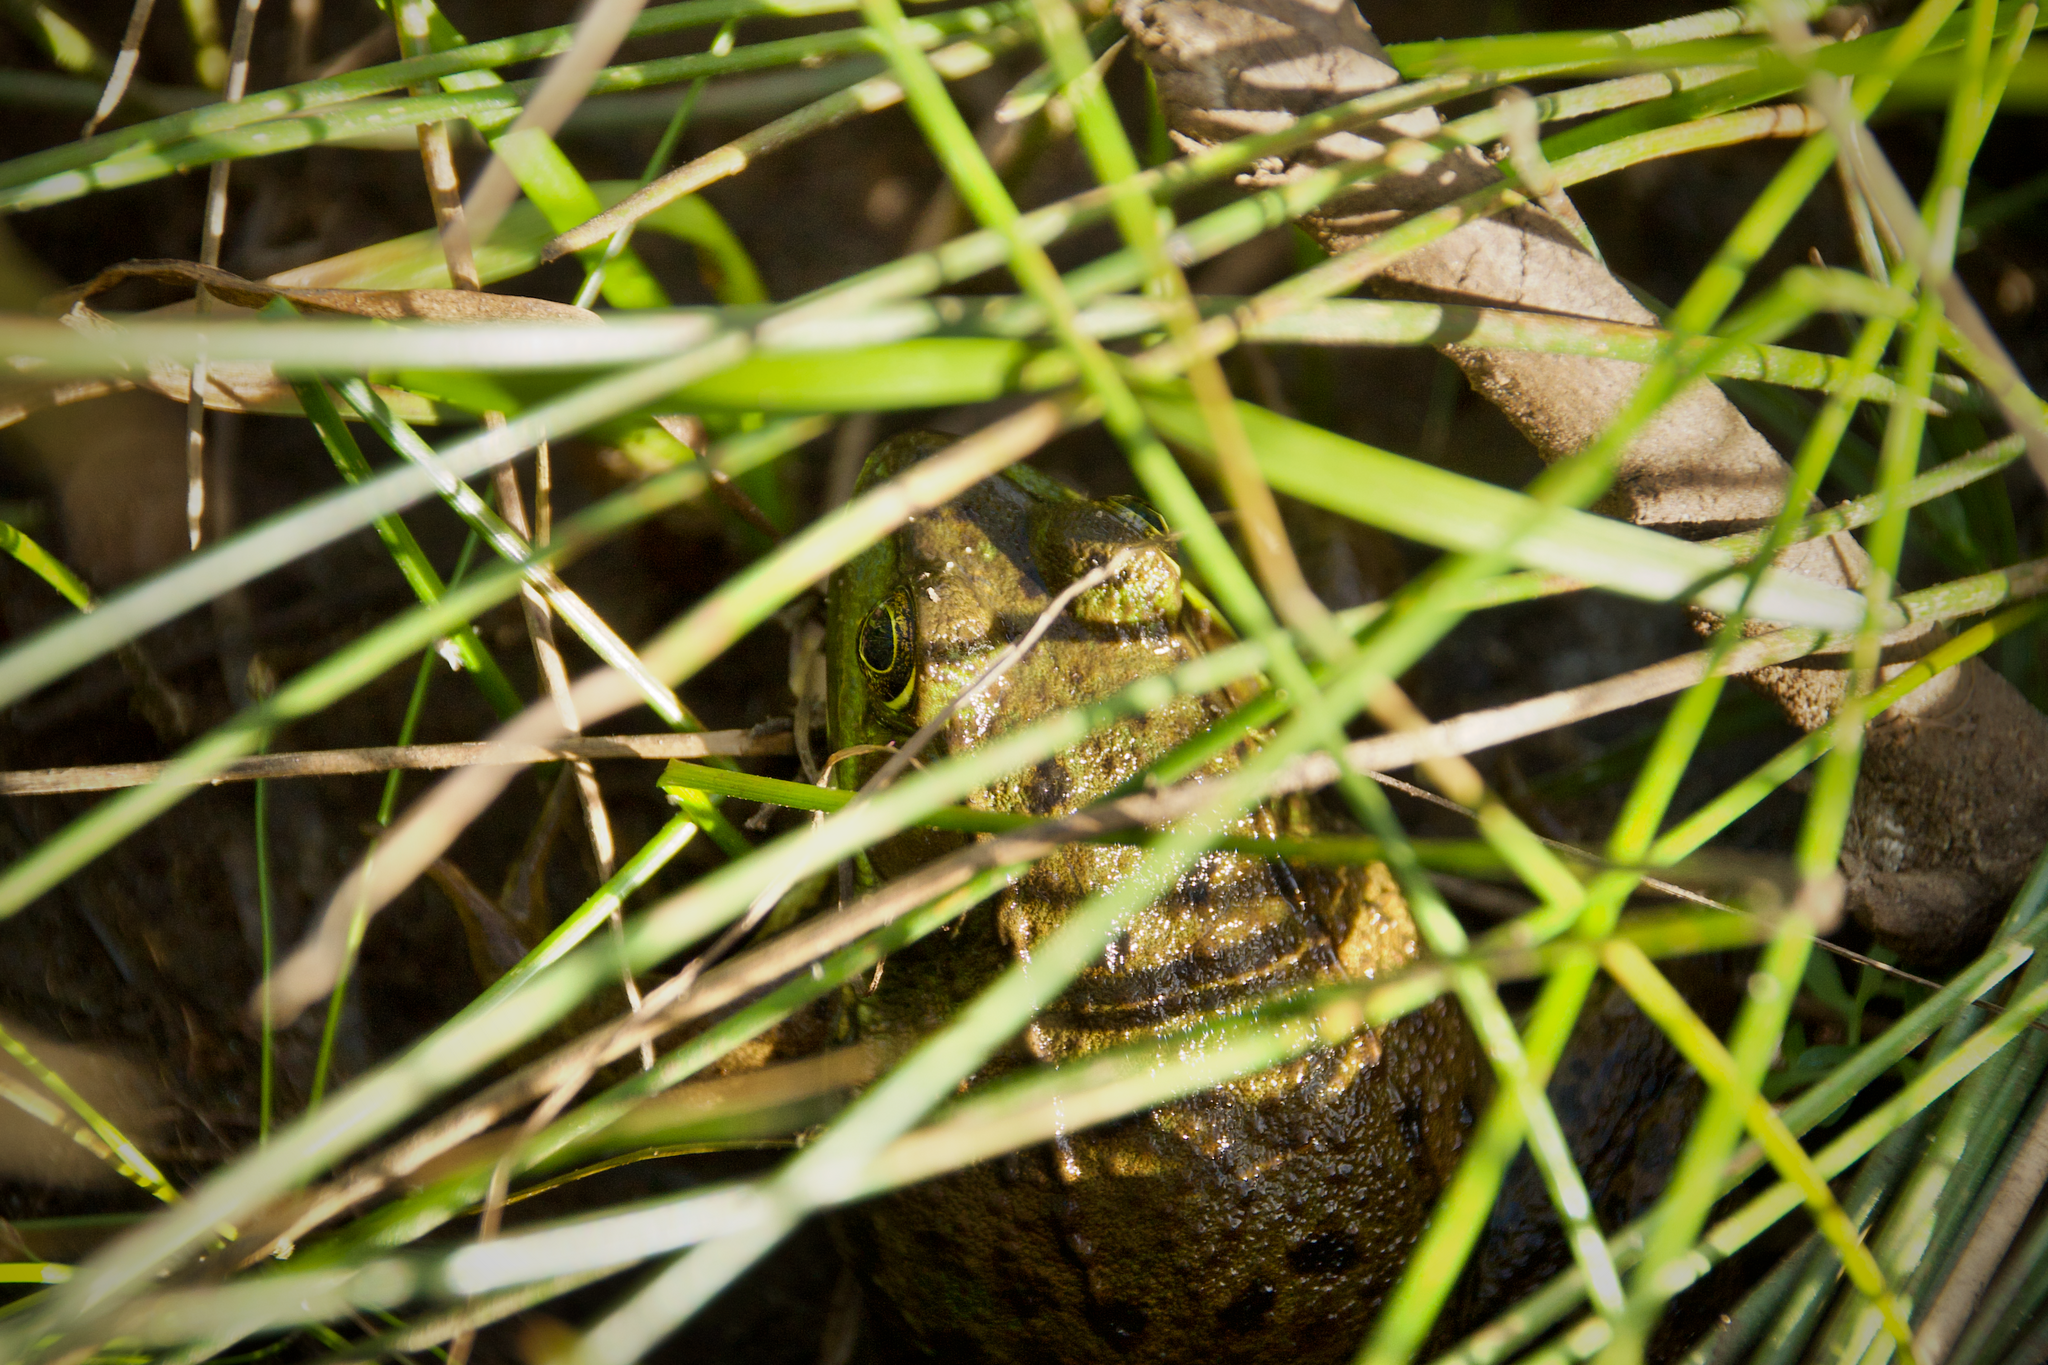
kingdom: Animalia
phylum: Chordata
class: Amphibia
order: Anura
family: Ranidae
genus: Lithobates
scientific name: Lithobates clamitans
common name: Green frog
